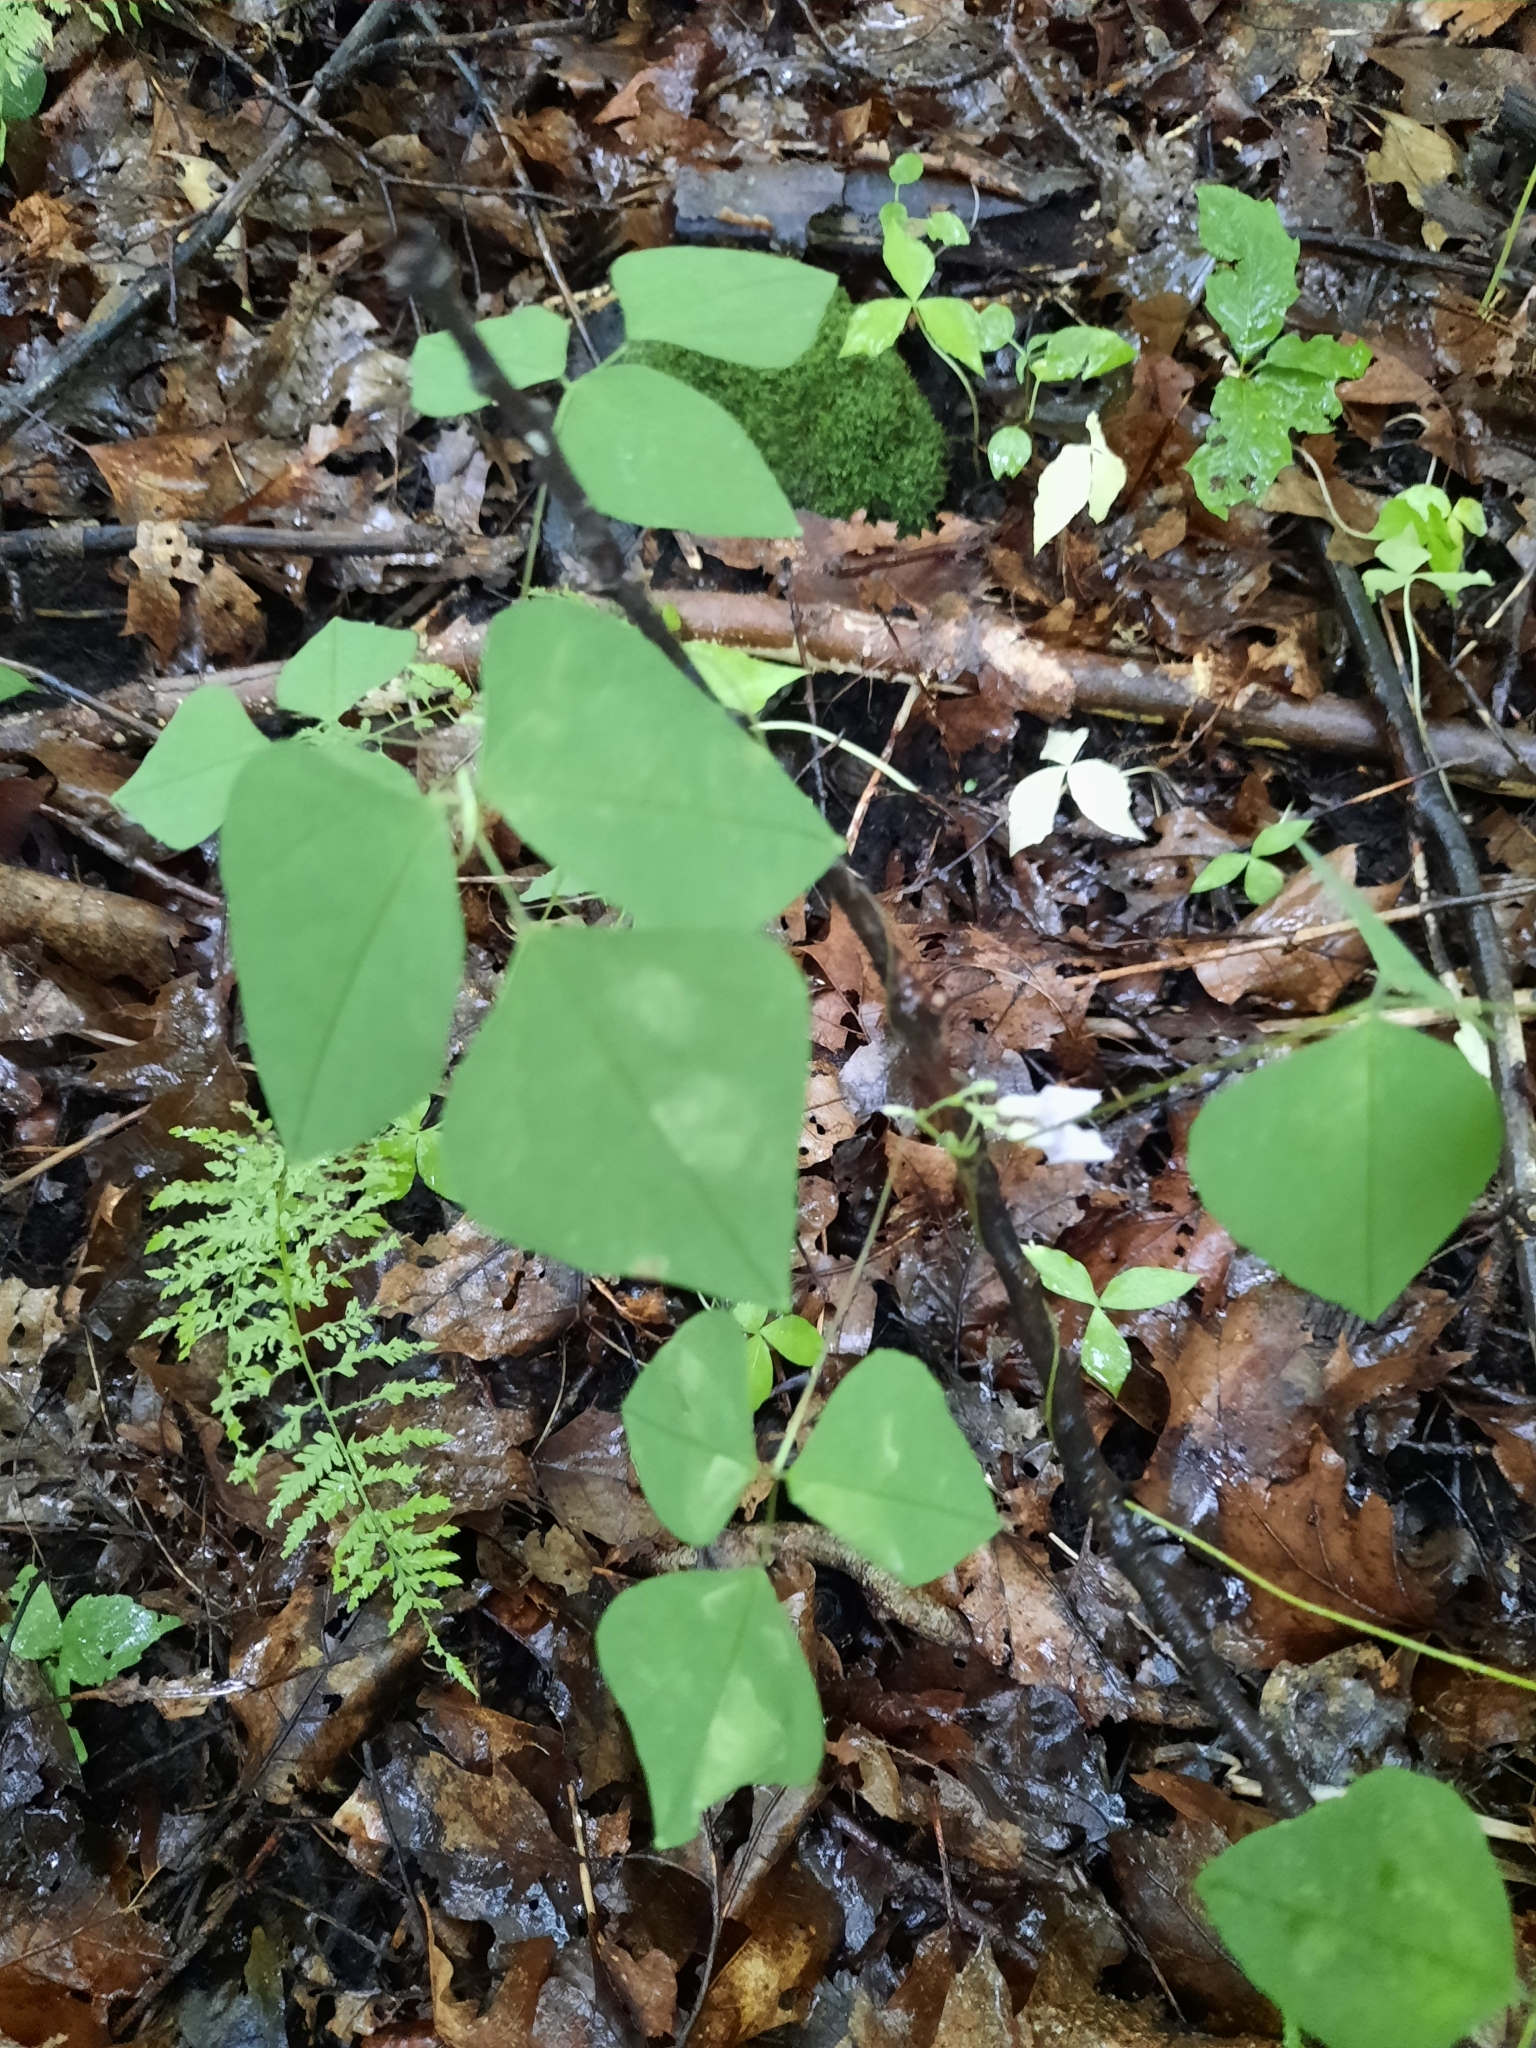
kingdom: Plantae
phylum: Tracheophyta
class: Magnoliopsida
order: Fabales
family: Fabaceae
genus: Amphicarpaea
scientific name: Amphicarpaea bracteata
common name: American hog peanut
